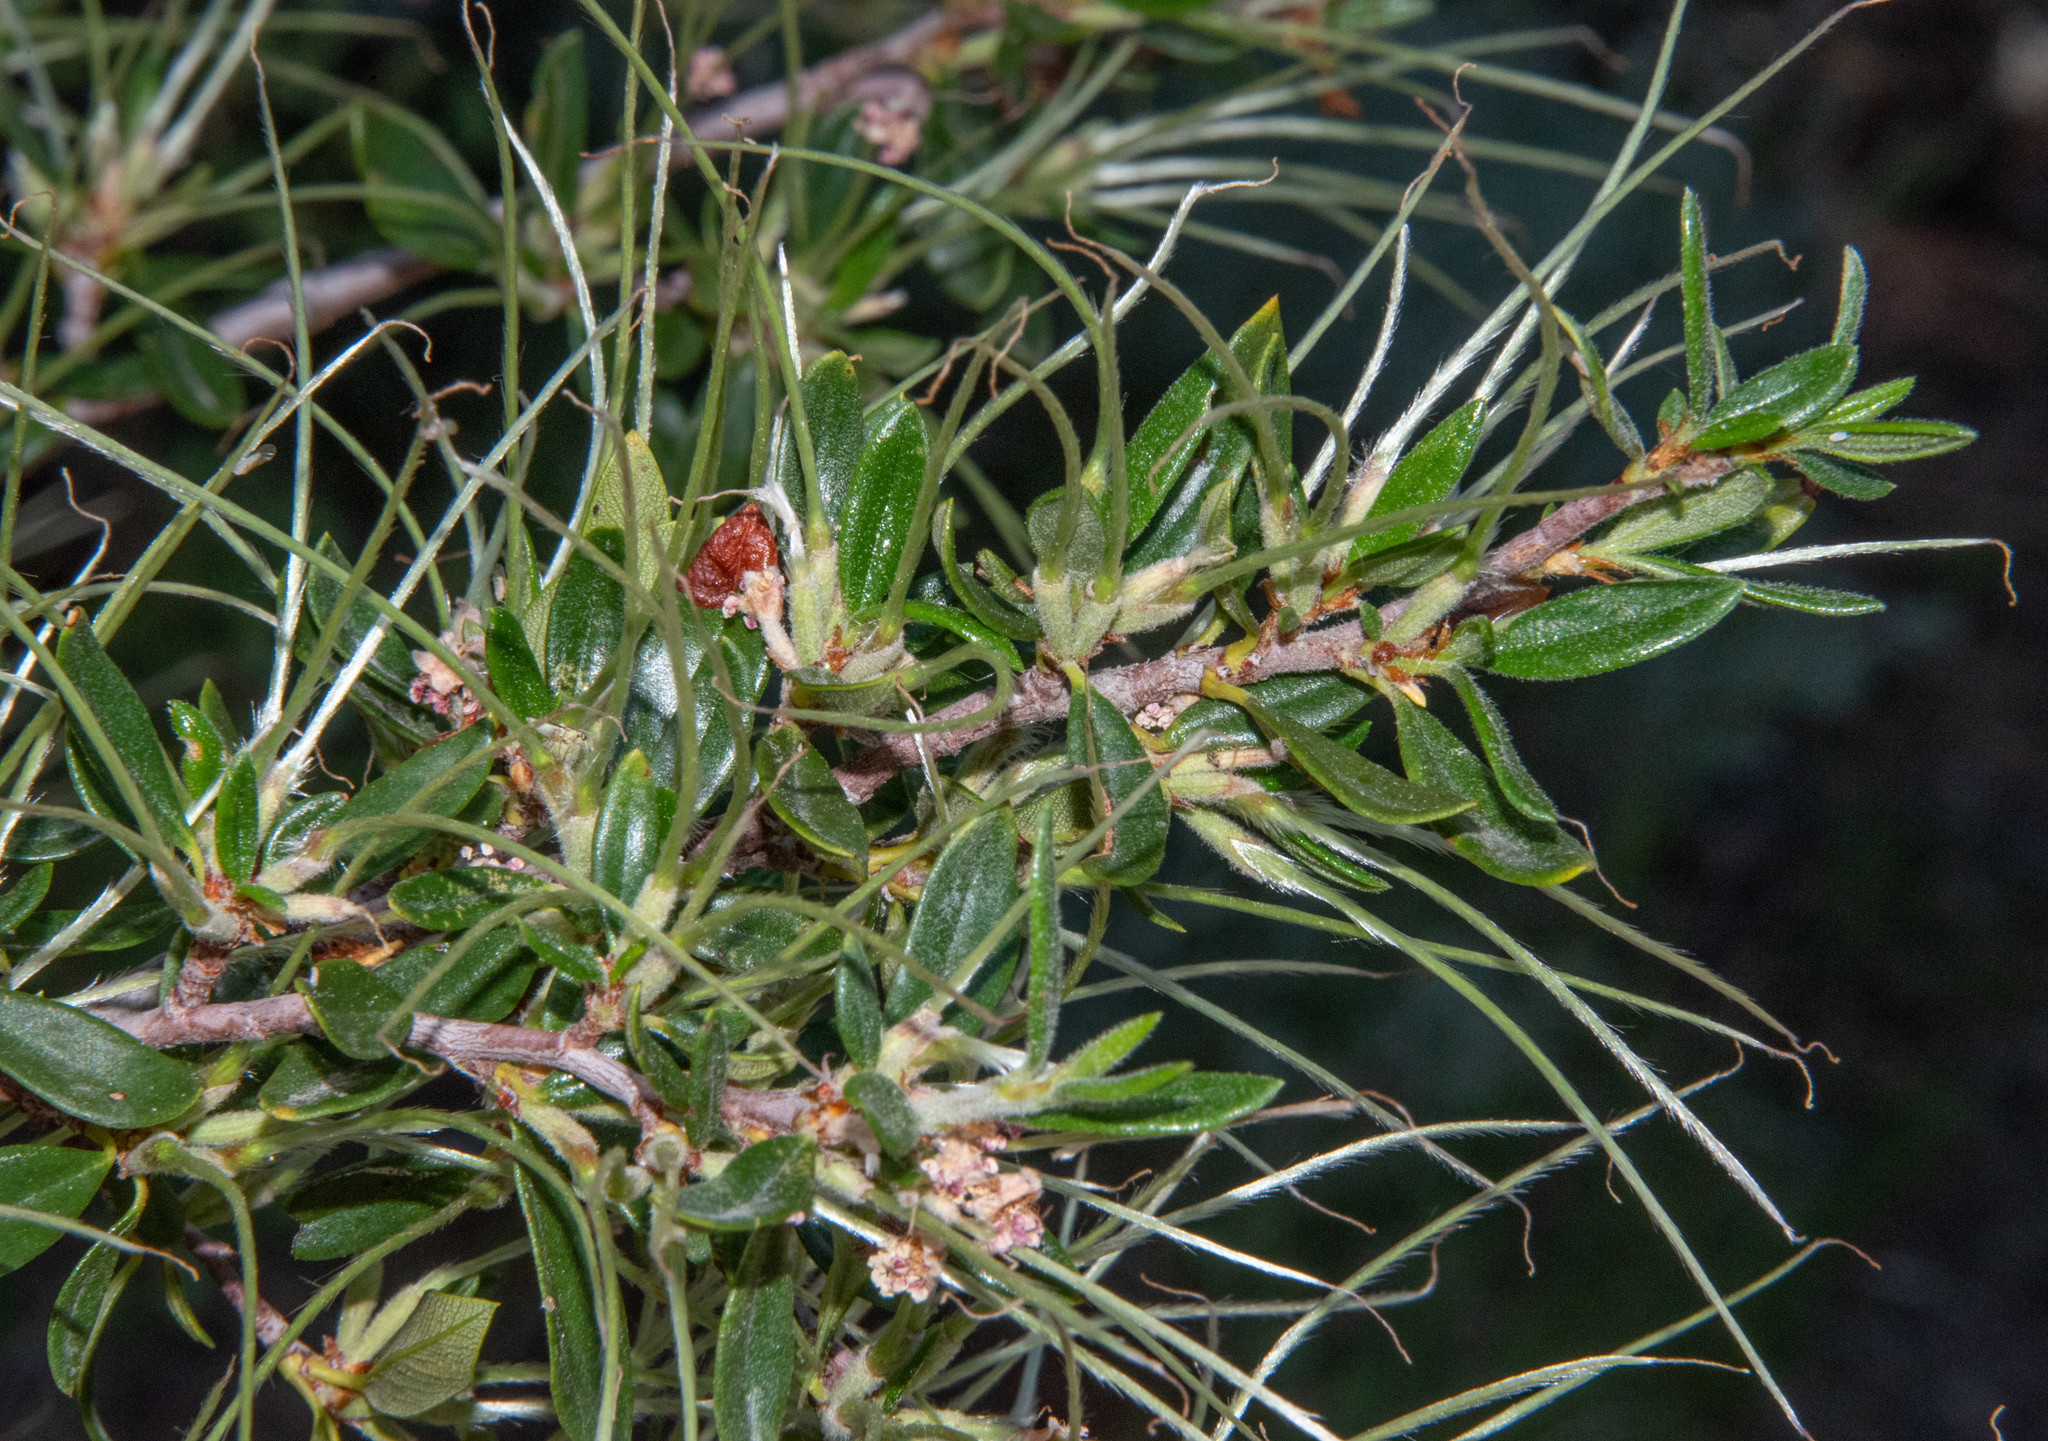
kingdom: Plantae
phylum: Tracheophyta
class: Magnoliopsida
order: Rosales
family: Rosaceae
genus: Cercocarpus
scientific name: Cercocarpus ledifolius
